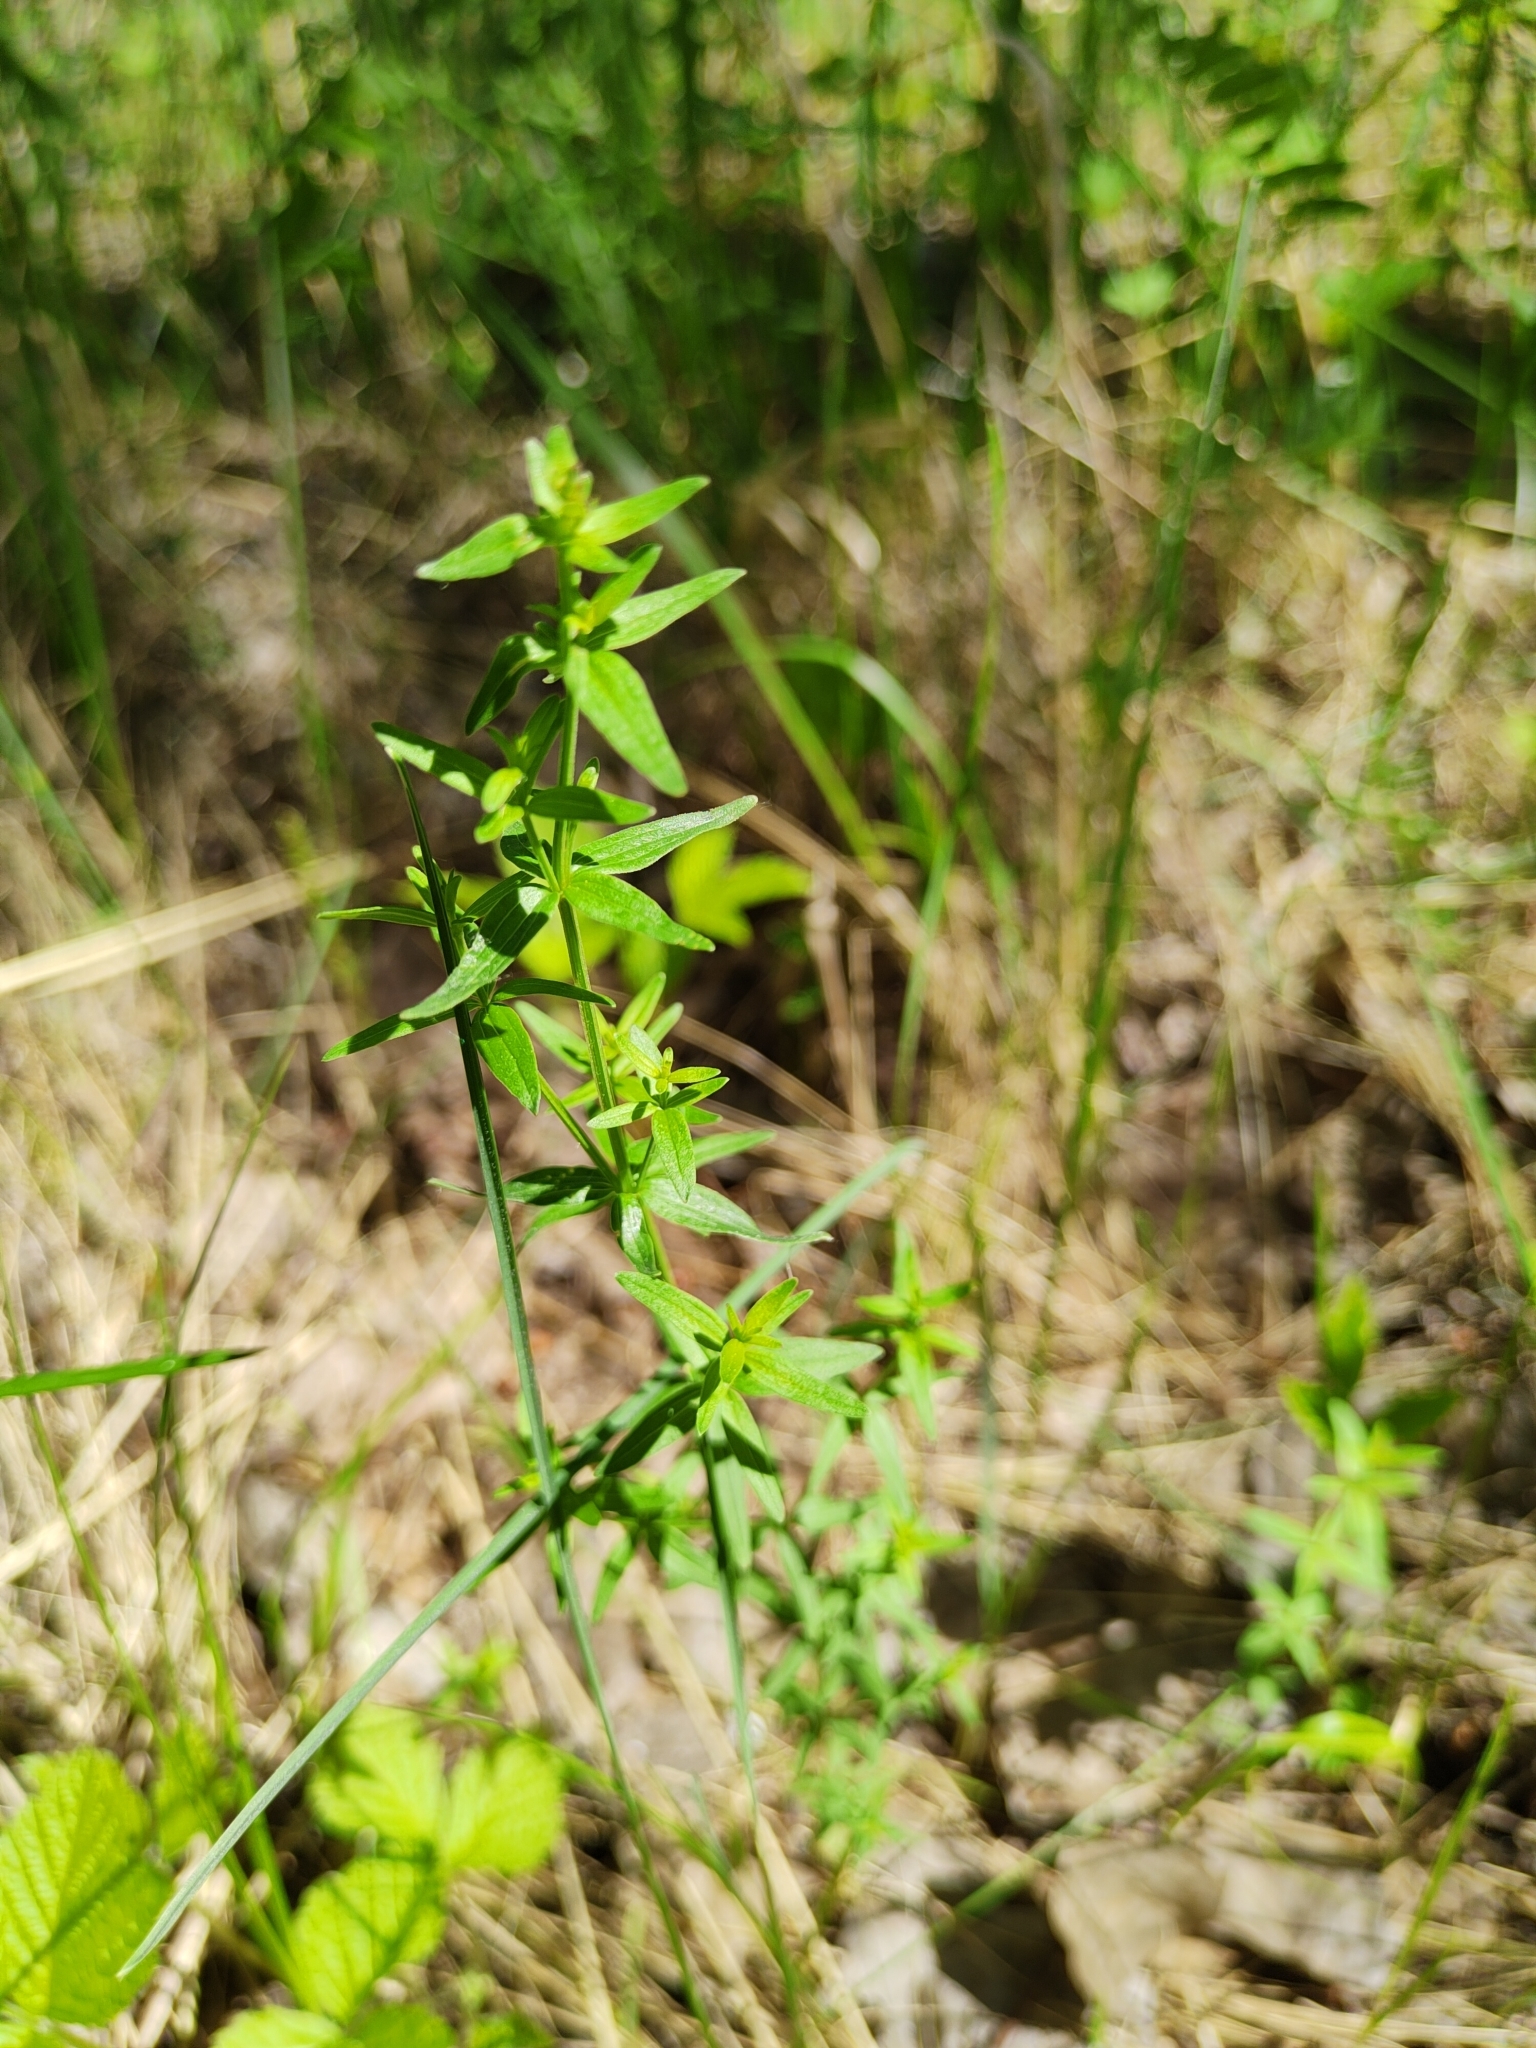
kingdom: Plantae
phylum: Tracheophyta
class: Magnoliopsida
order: Gentianales
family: Rubiaceae
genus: Galium
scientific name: Galium boreale
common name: Northern bedstraw
